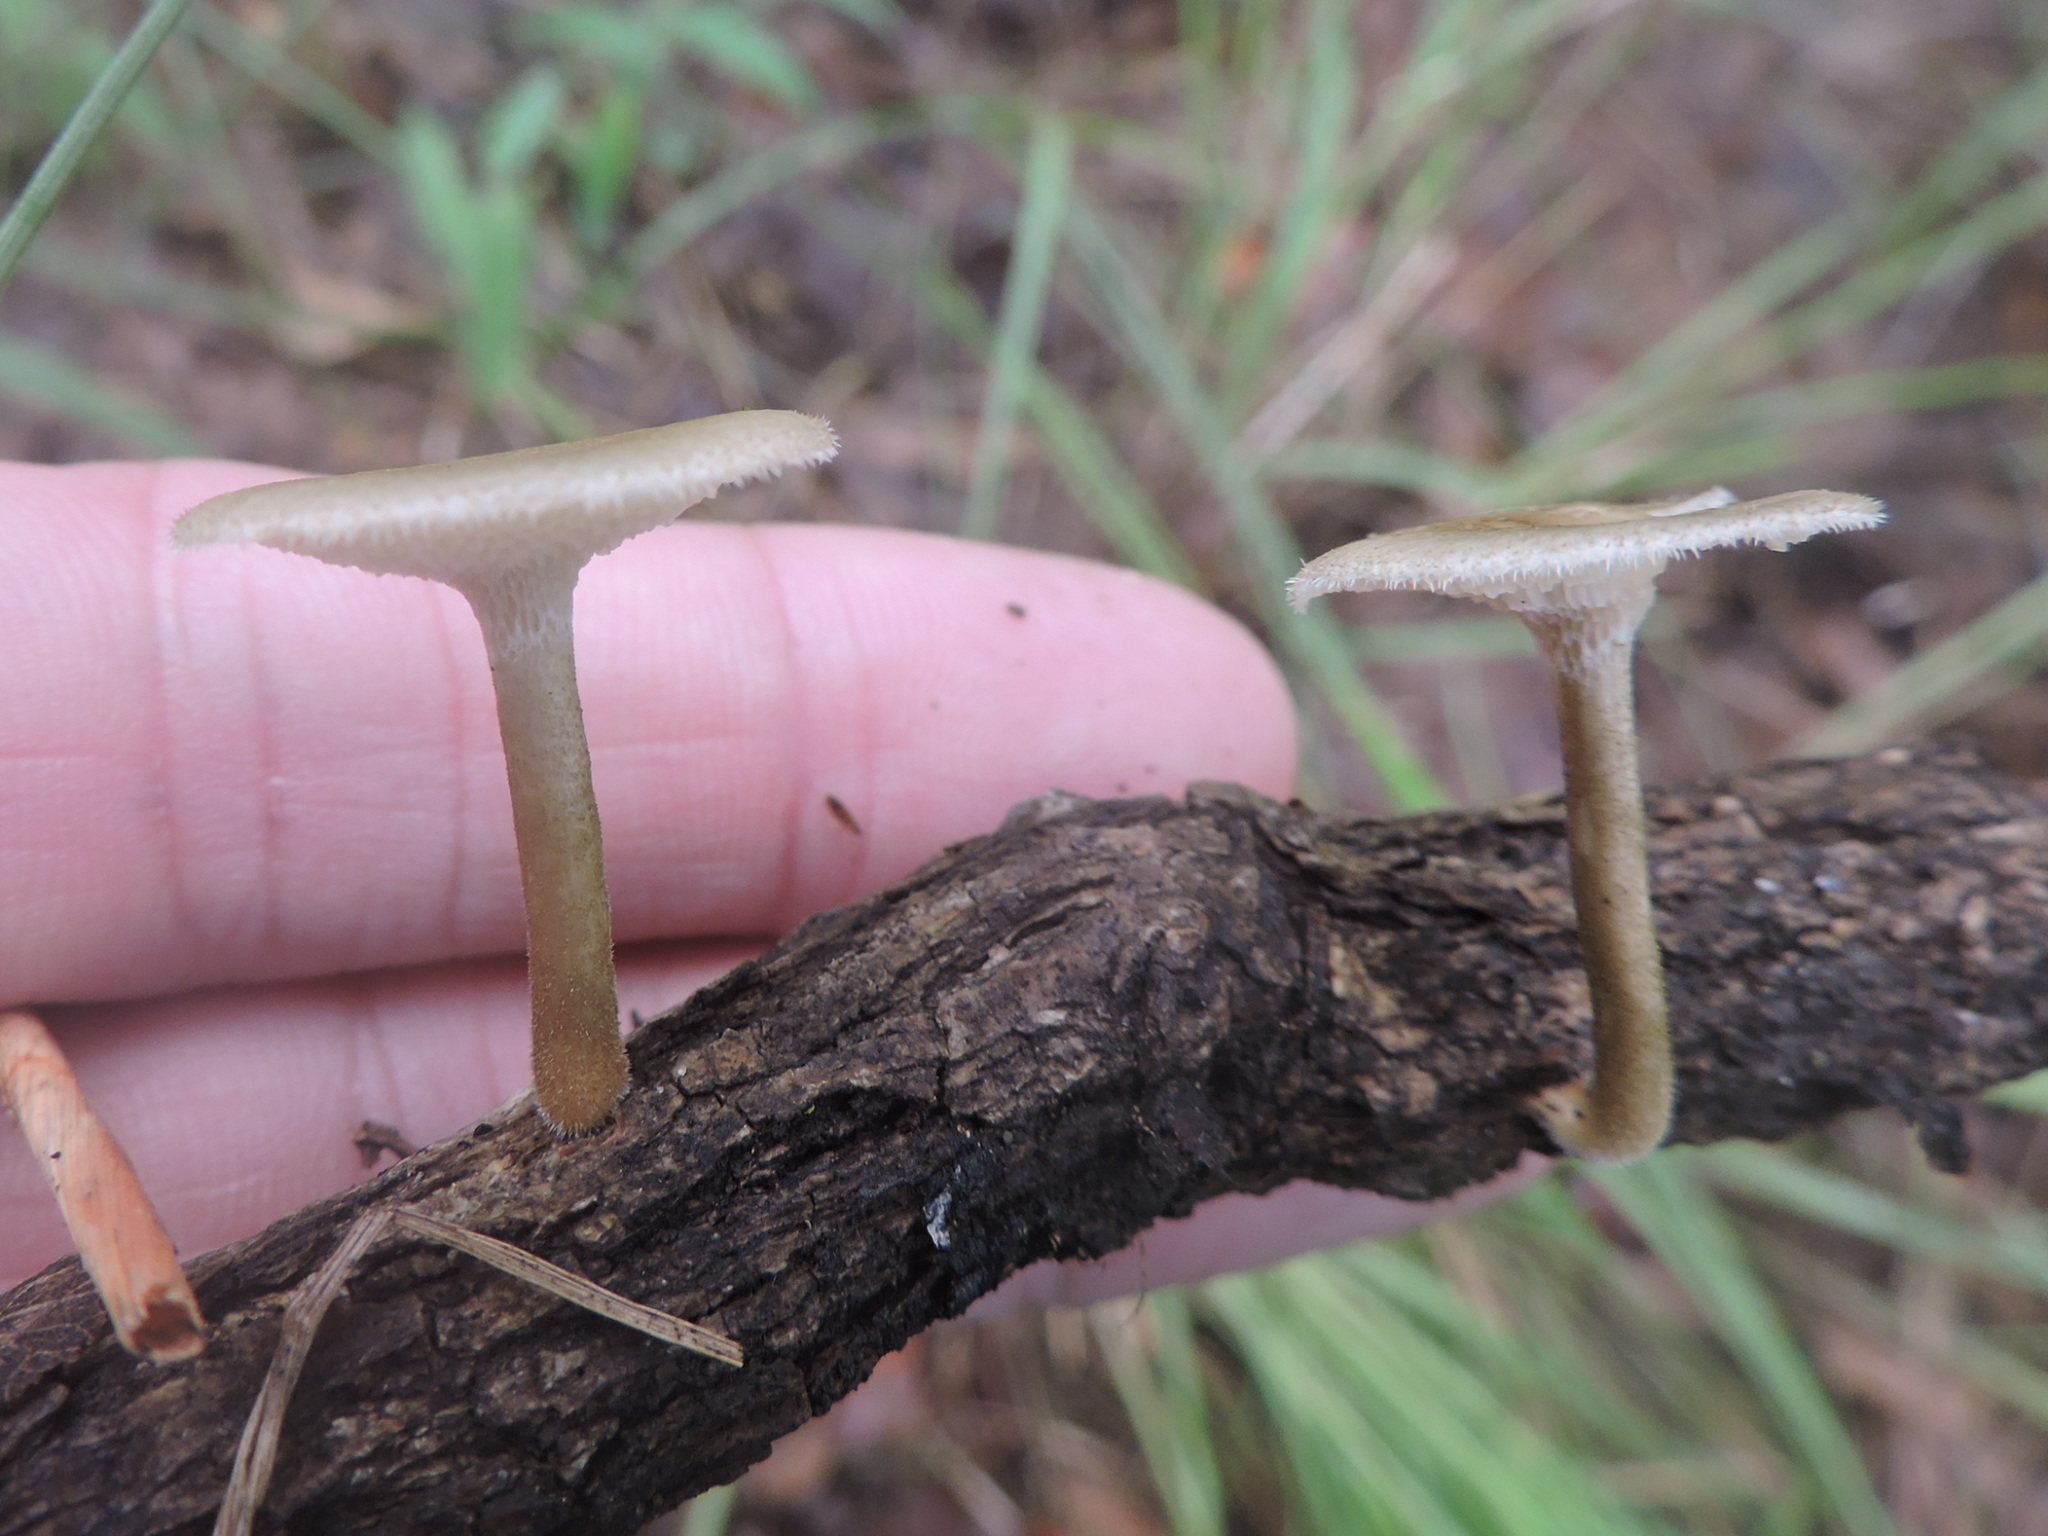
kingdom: Fungi
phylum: Basidiomycota
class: Agaricomycetes
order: Polyporales
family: Polyporaceae
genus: Lentinus
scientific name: Lentinus arcularius
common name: Spring polypore
